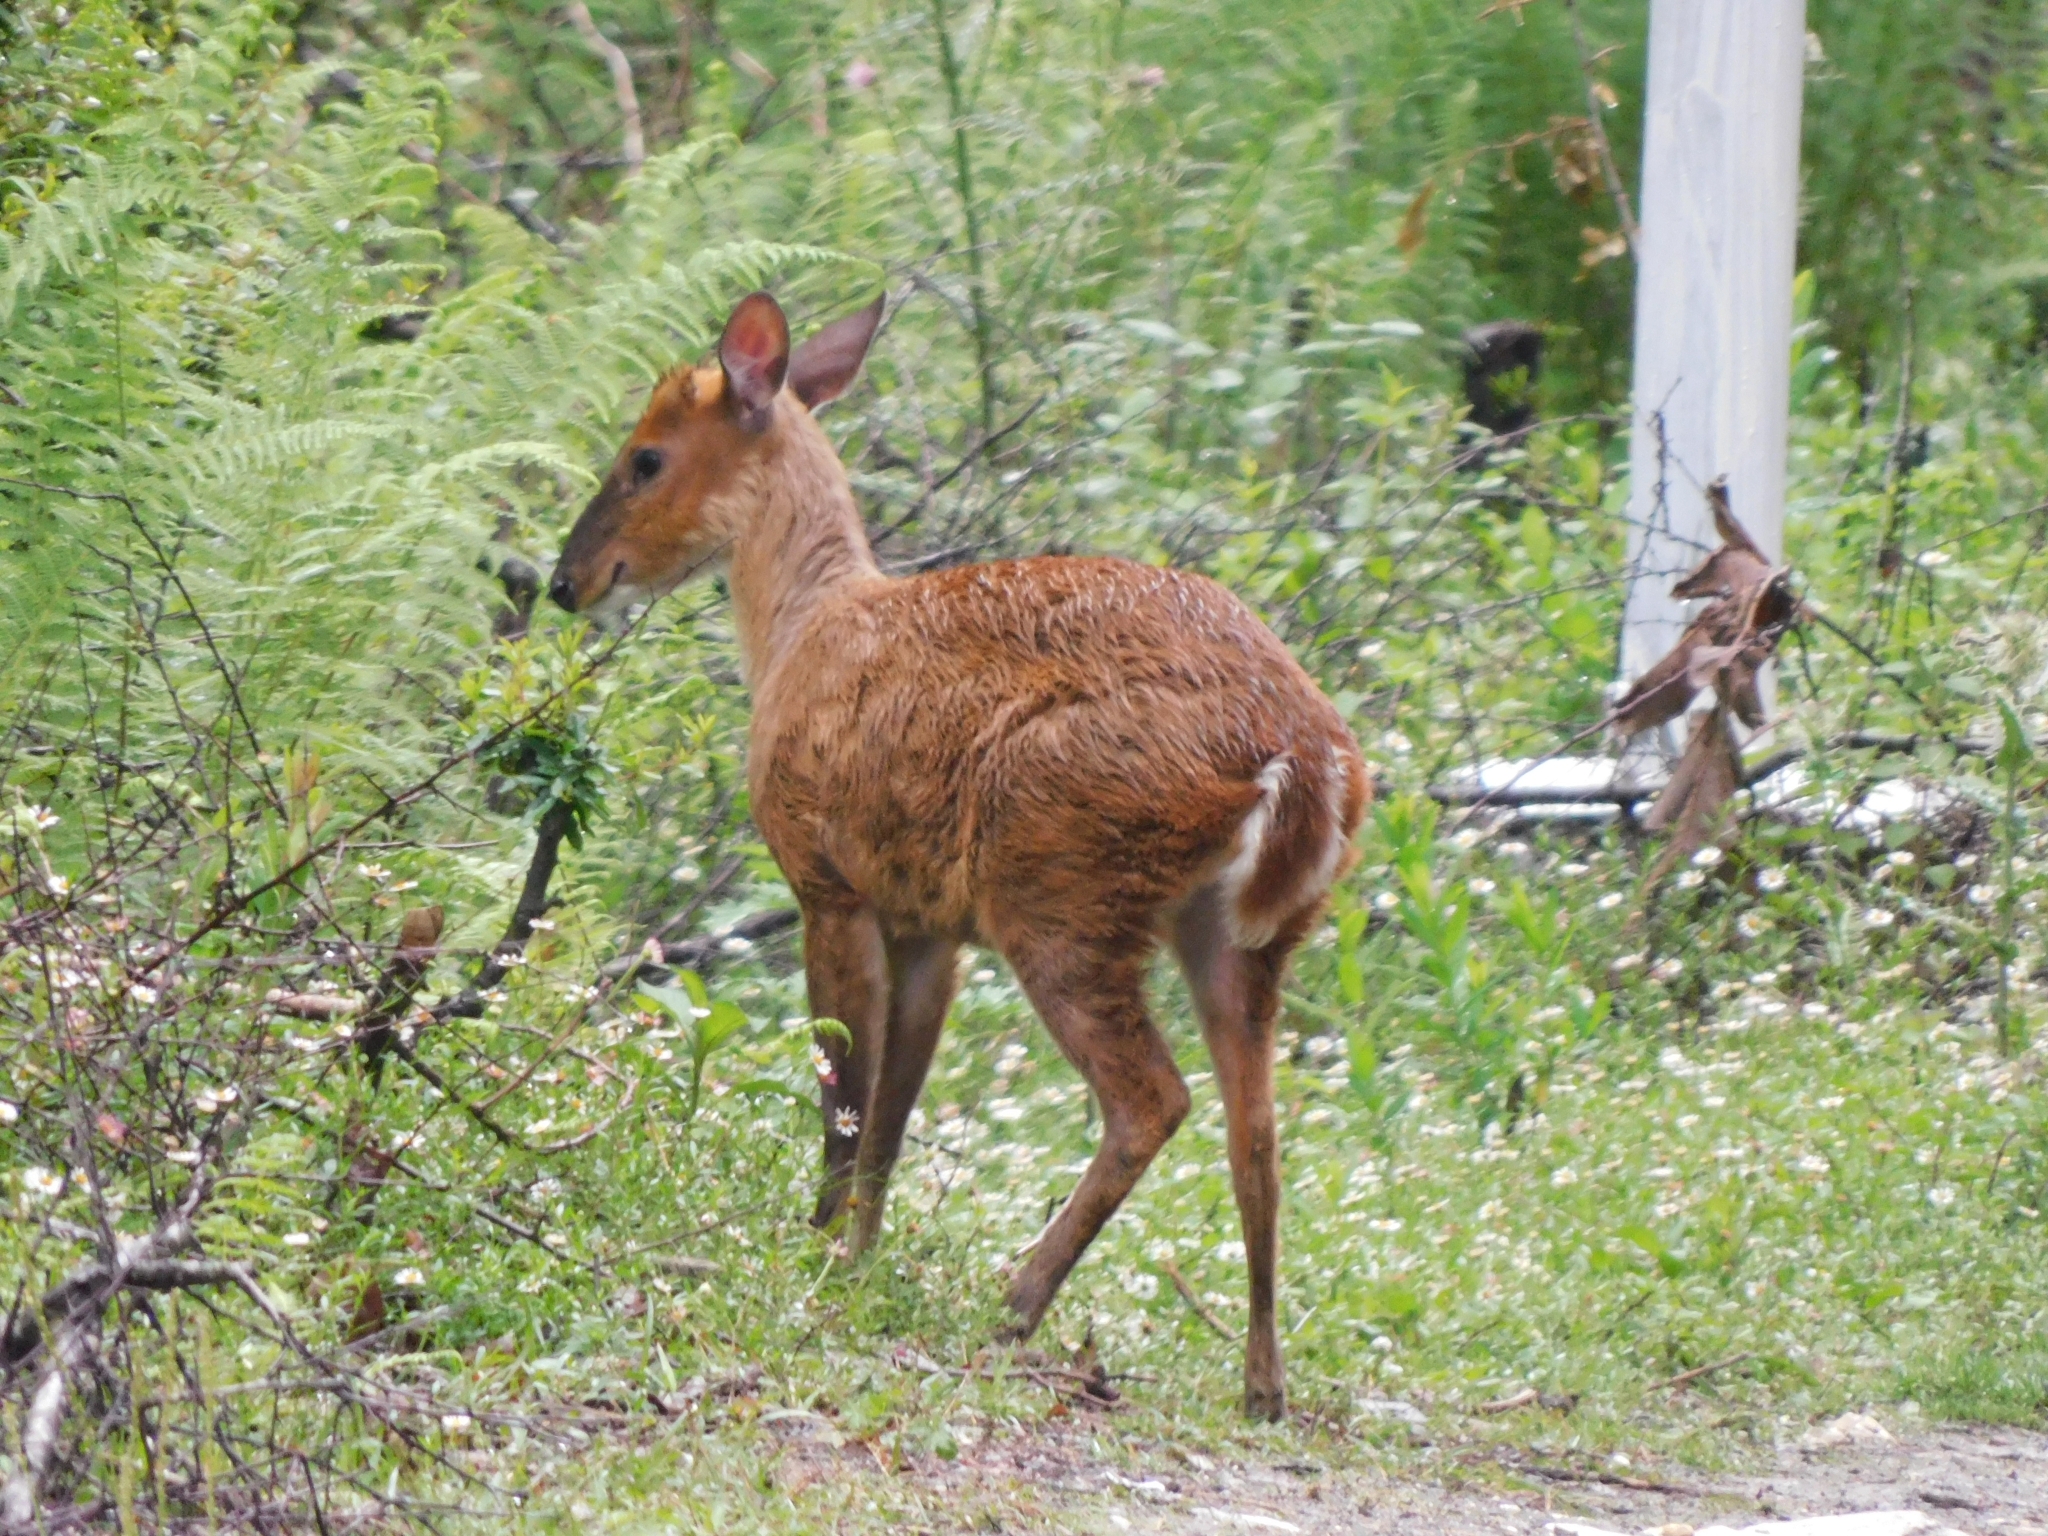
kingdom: Animalia
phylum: Chordata
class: Mammalia
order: Artiodactyla
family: Cervidae
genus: Muntiacus
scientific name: Muntiacus muntjak
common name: Indian muntjac
